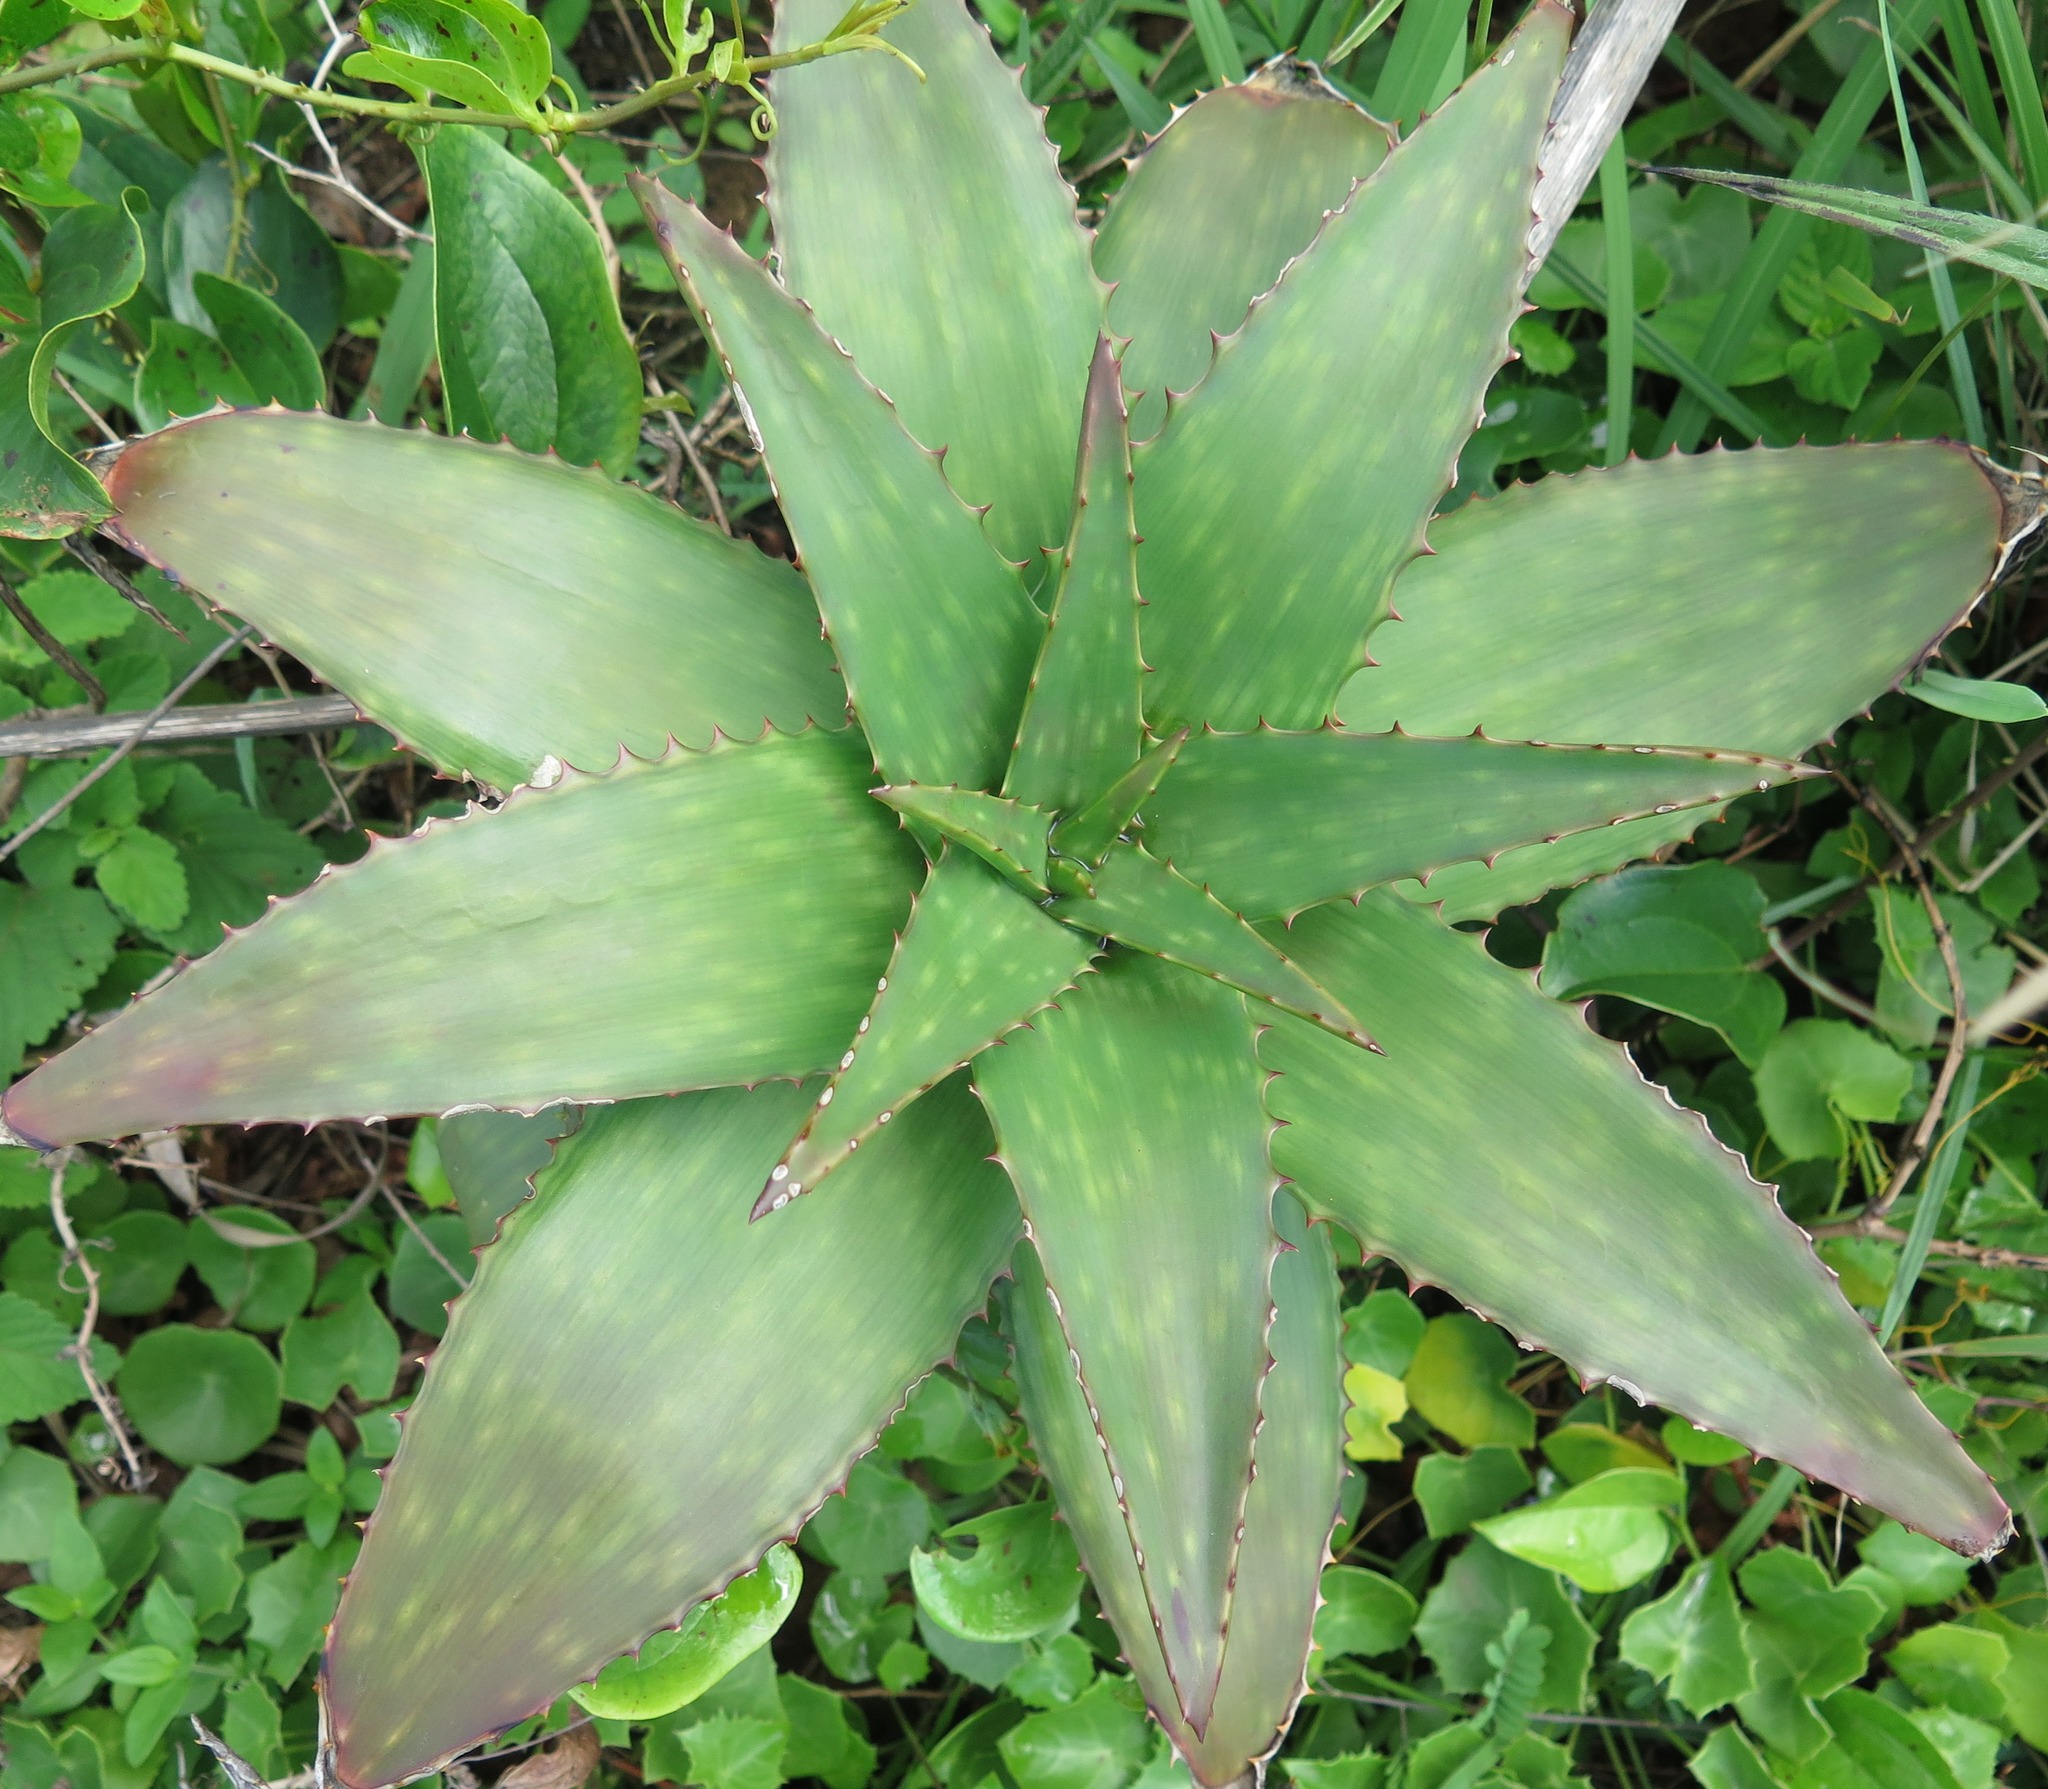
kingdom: Plantae
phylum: Tracheophyta
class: Liliopsida
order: Asparagales
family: Asphodelaceae
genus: Aloe
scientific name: Aloe maculata
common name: Broadleaf aloe
